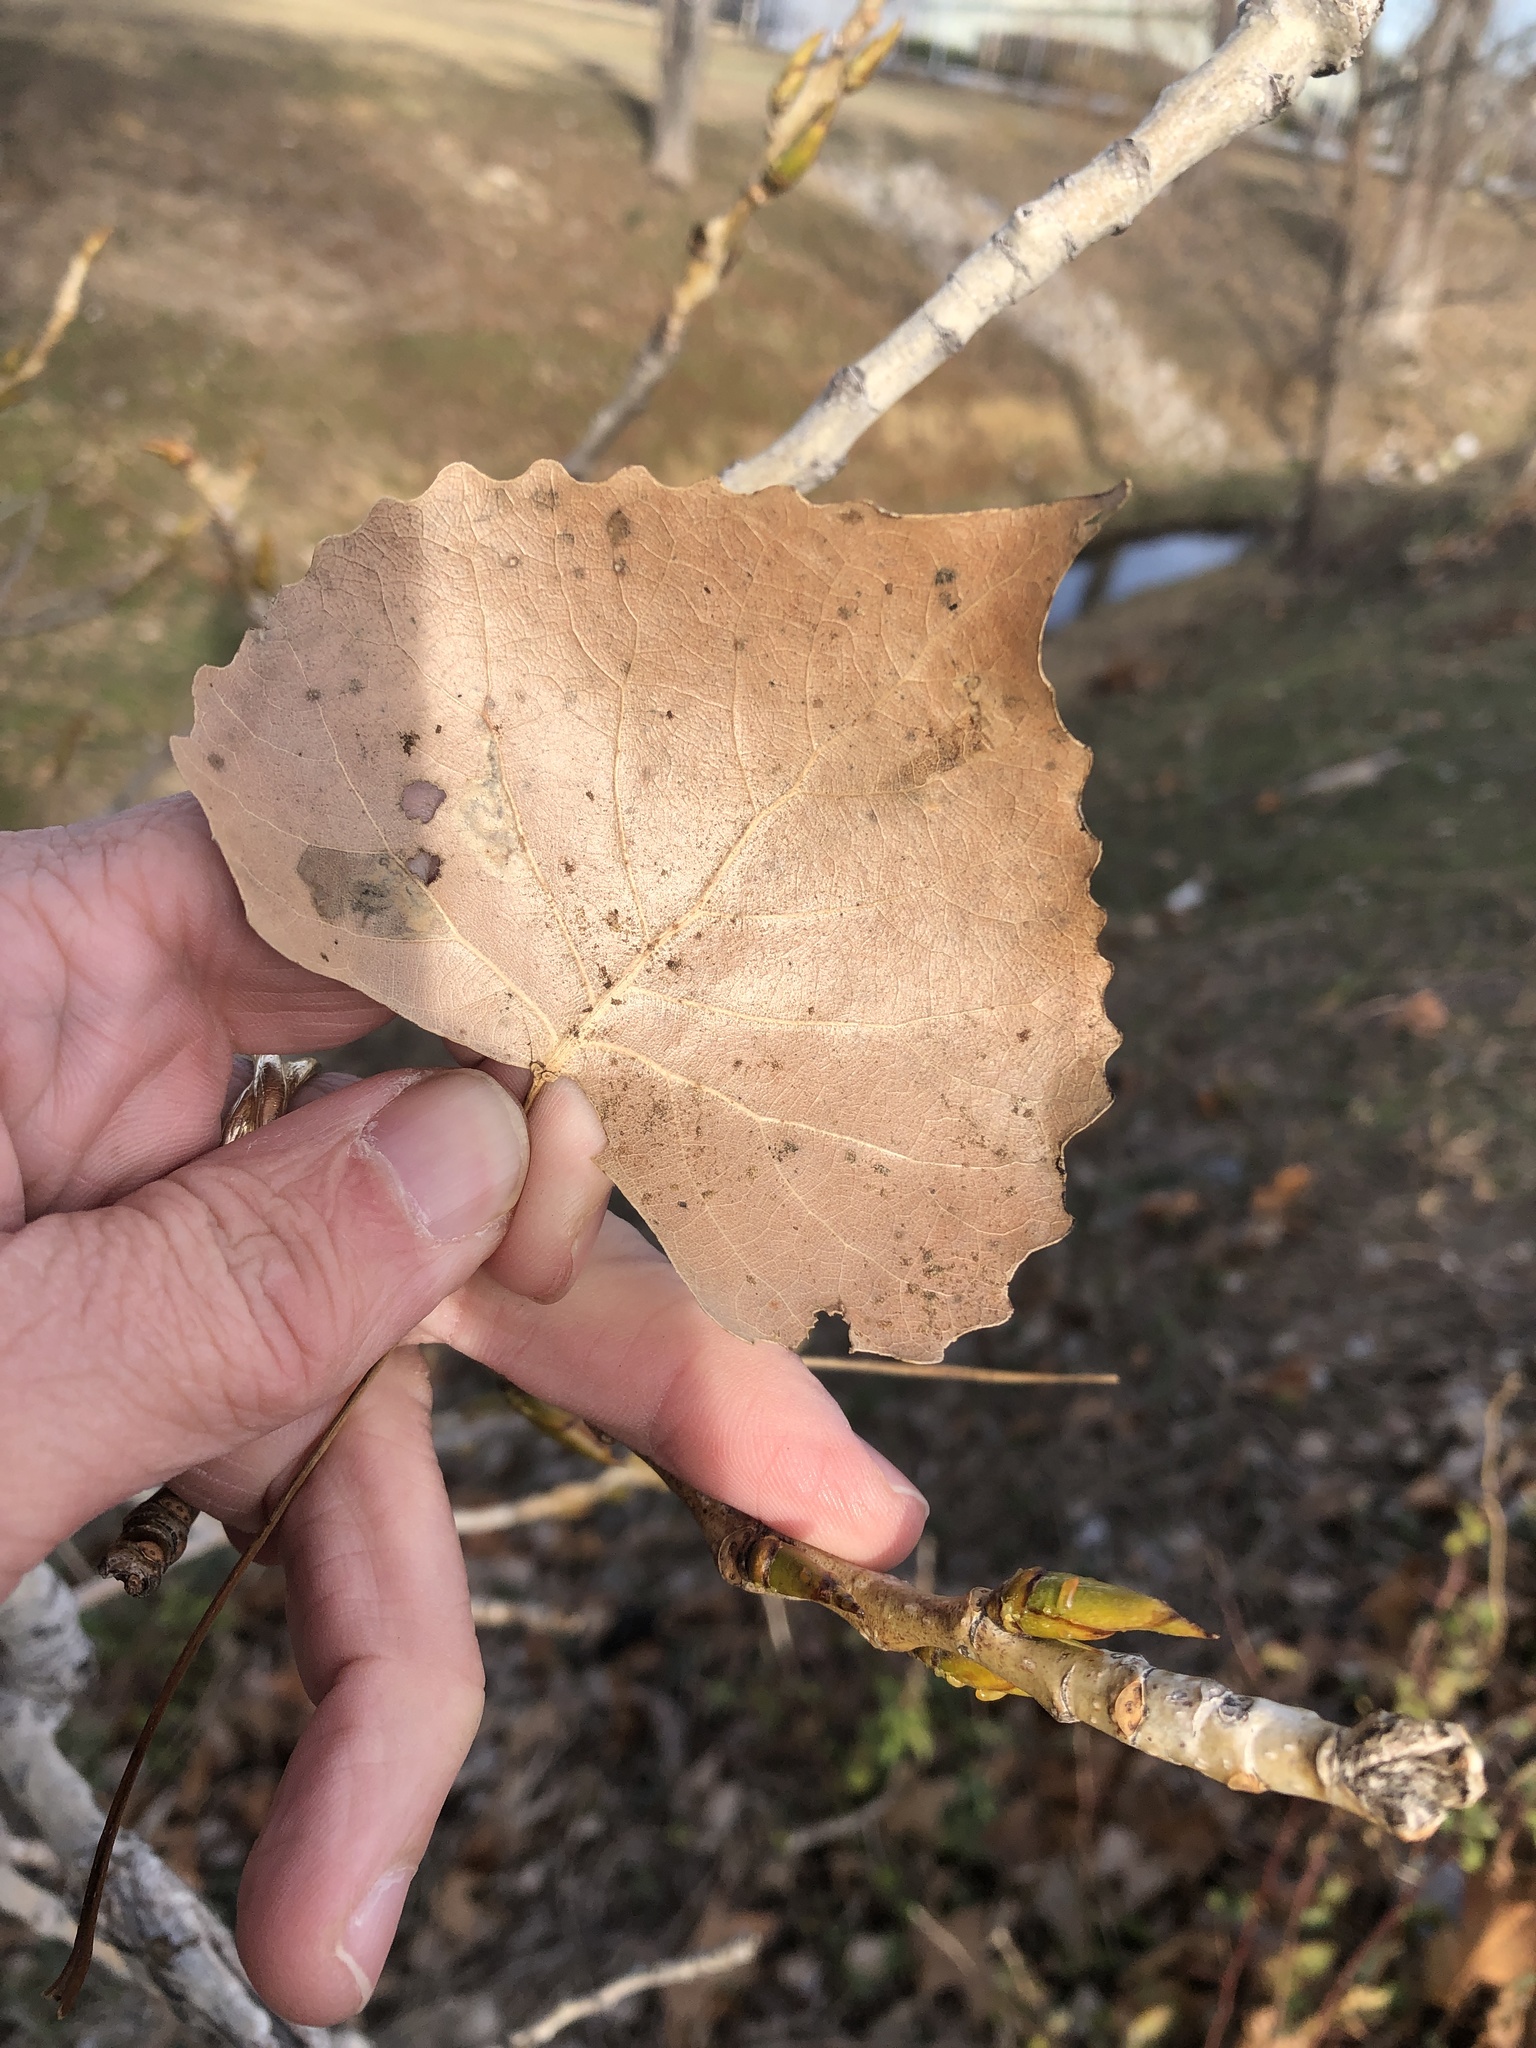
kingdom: Plantae
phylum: Tracheophyta
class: Magnoliopsida
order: Malpighiales
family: Salicaceae
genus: Populus
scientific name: Populus deltoides
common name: Eastern cottonwood
